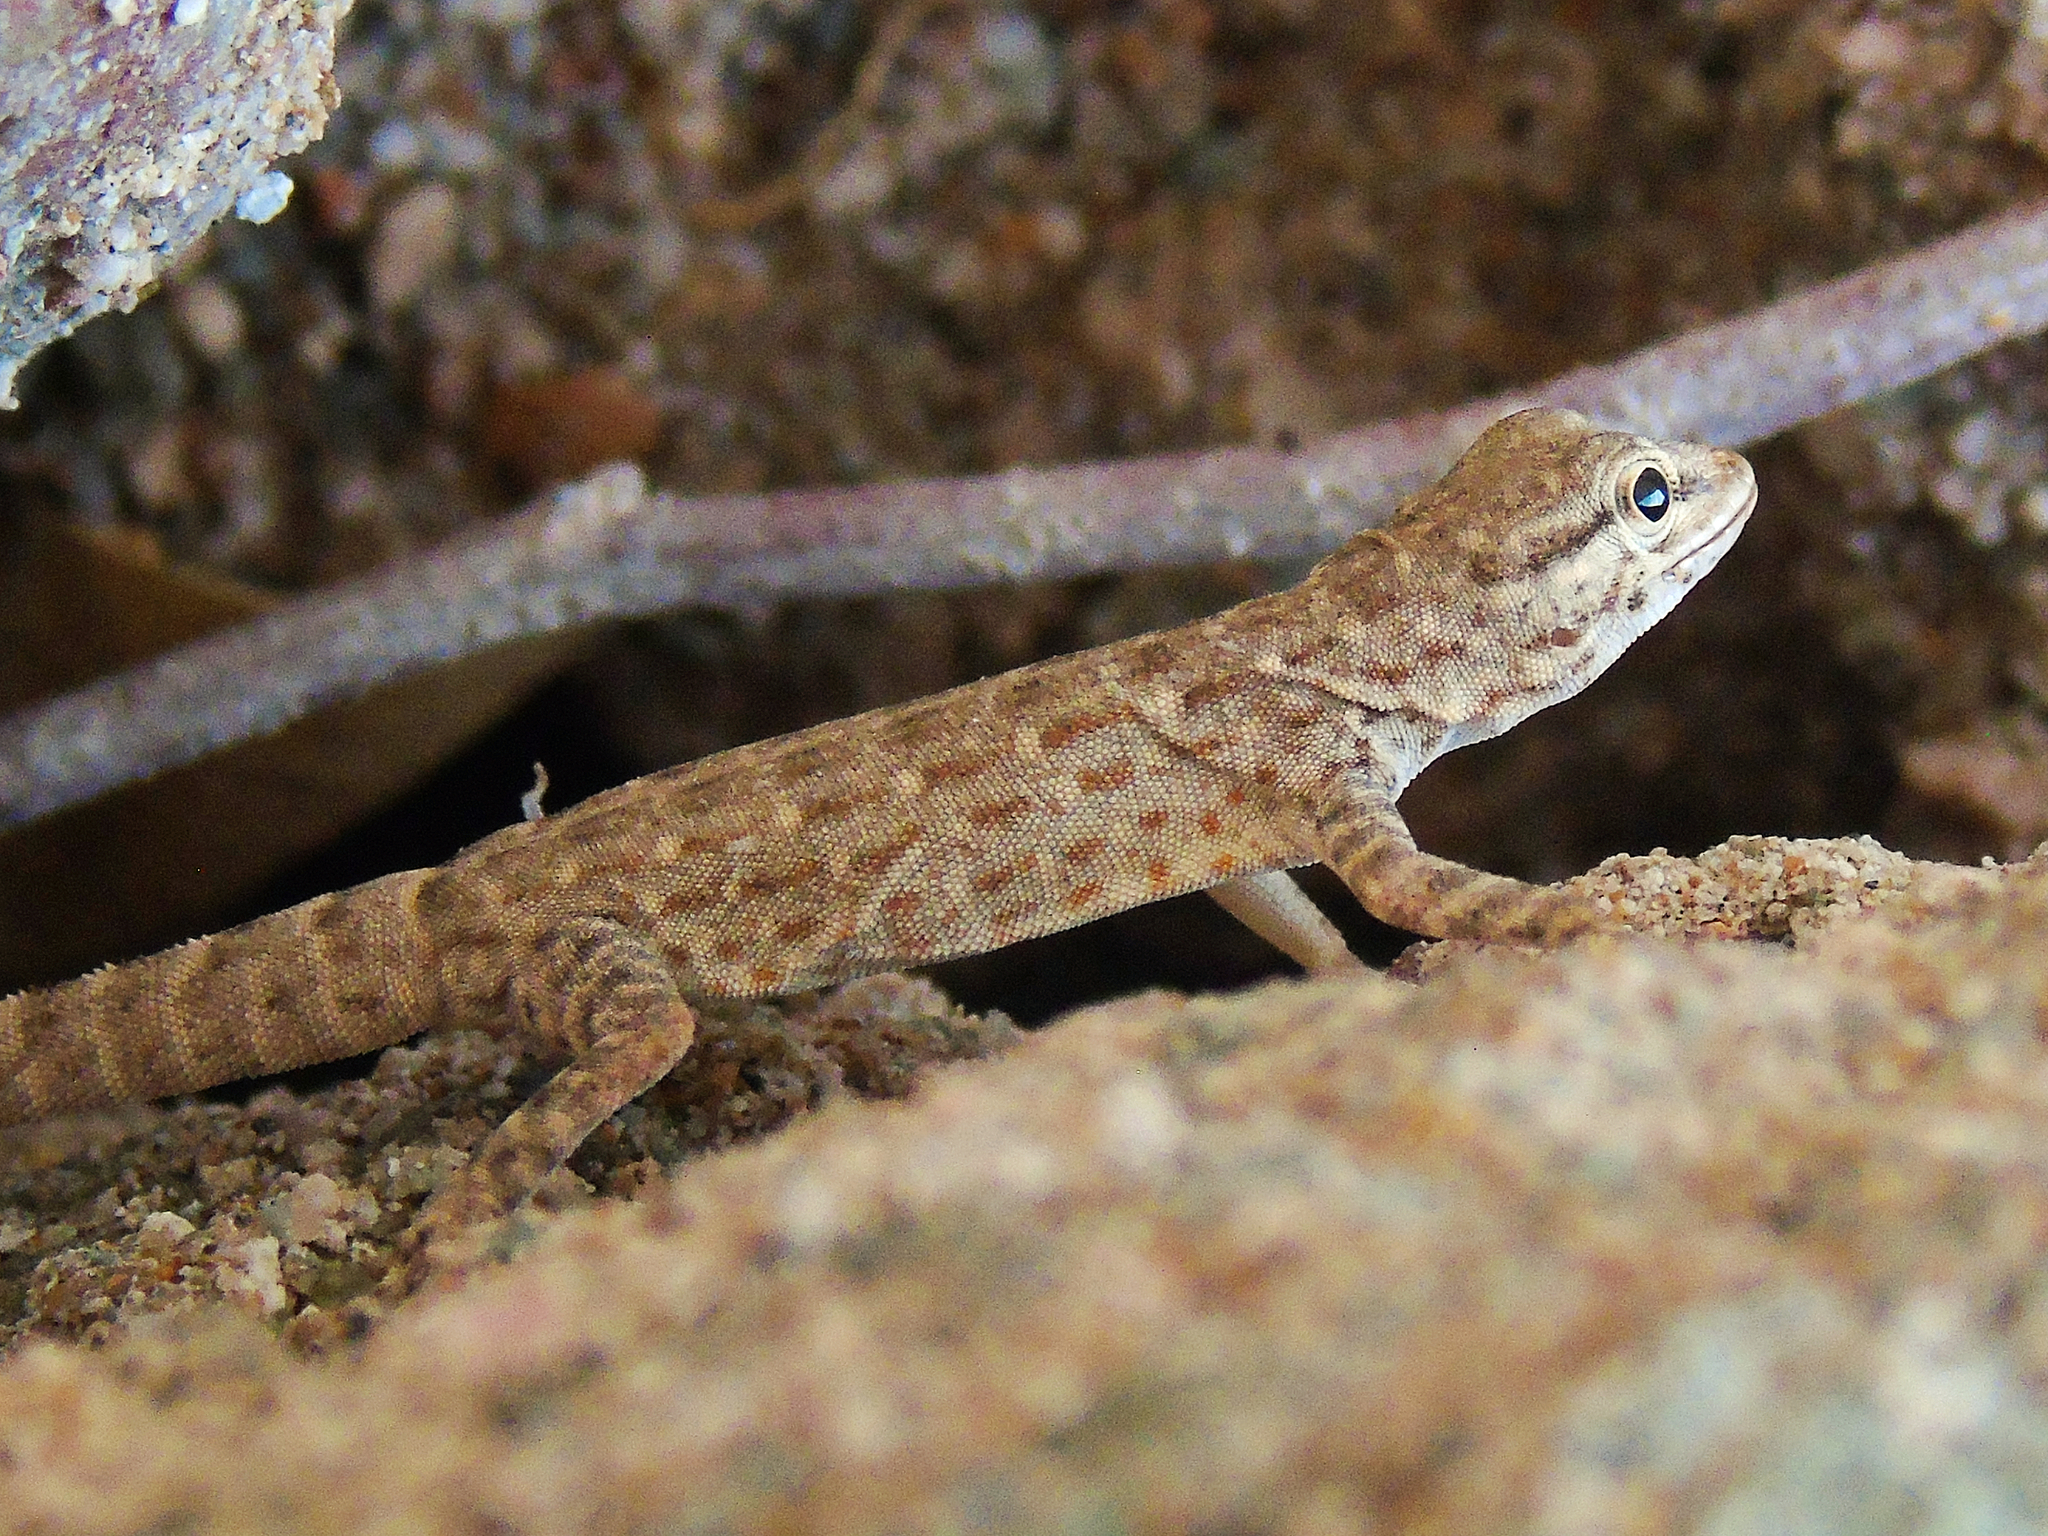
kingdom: Animalia
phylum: Chordata
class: Squamata
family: Sphaerodactylidae
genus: Pristurus
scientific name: Pristurus rupestris
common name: Blanford’s semaphore gecko
